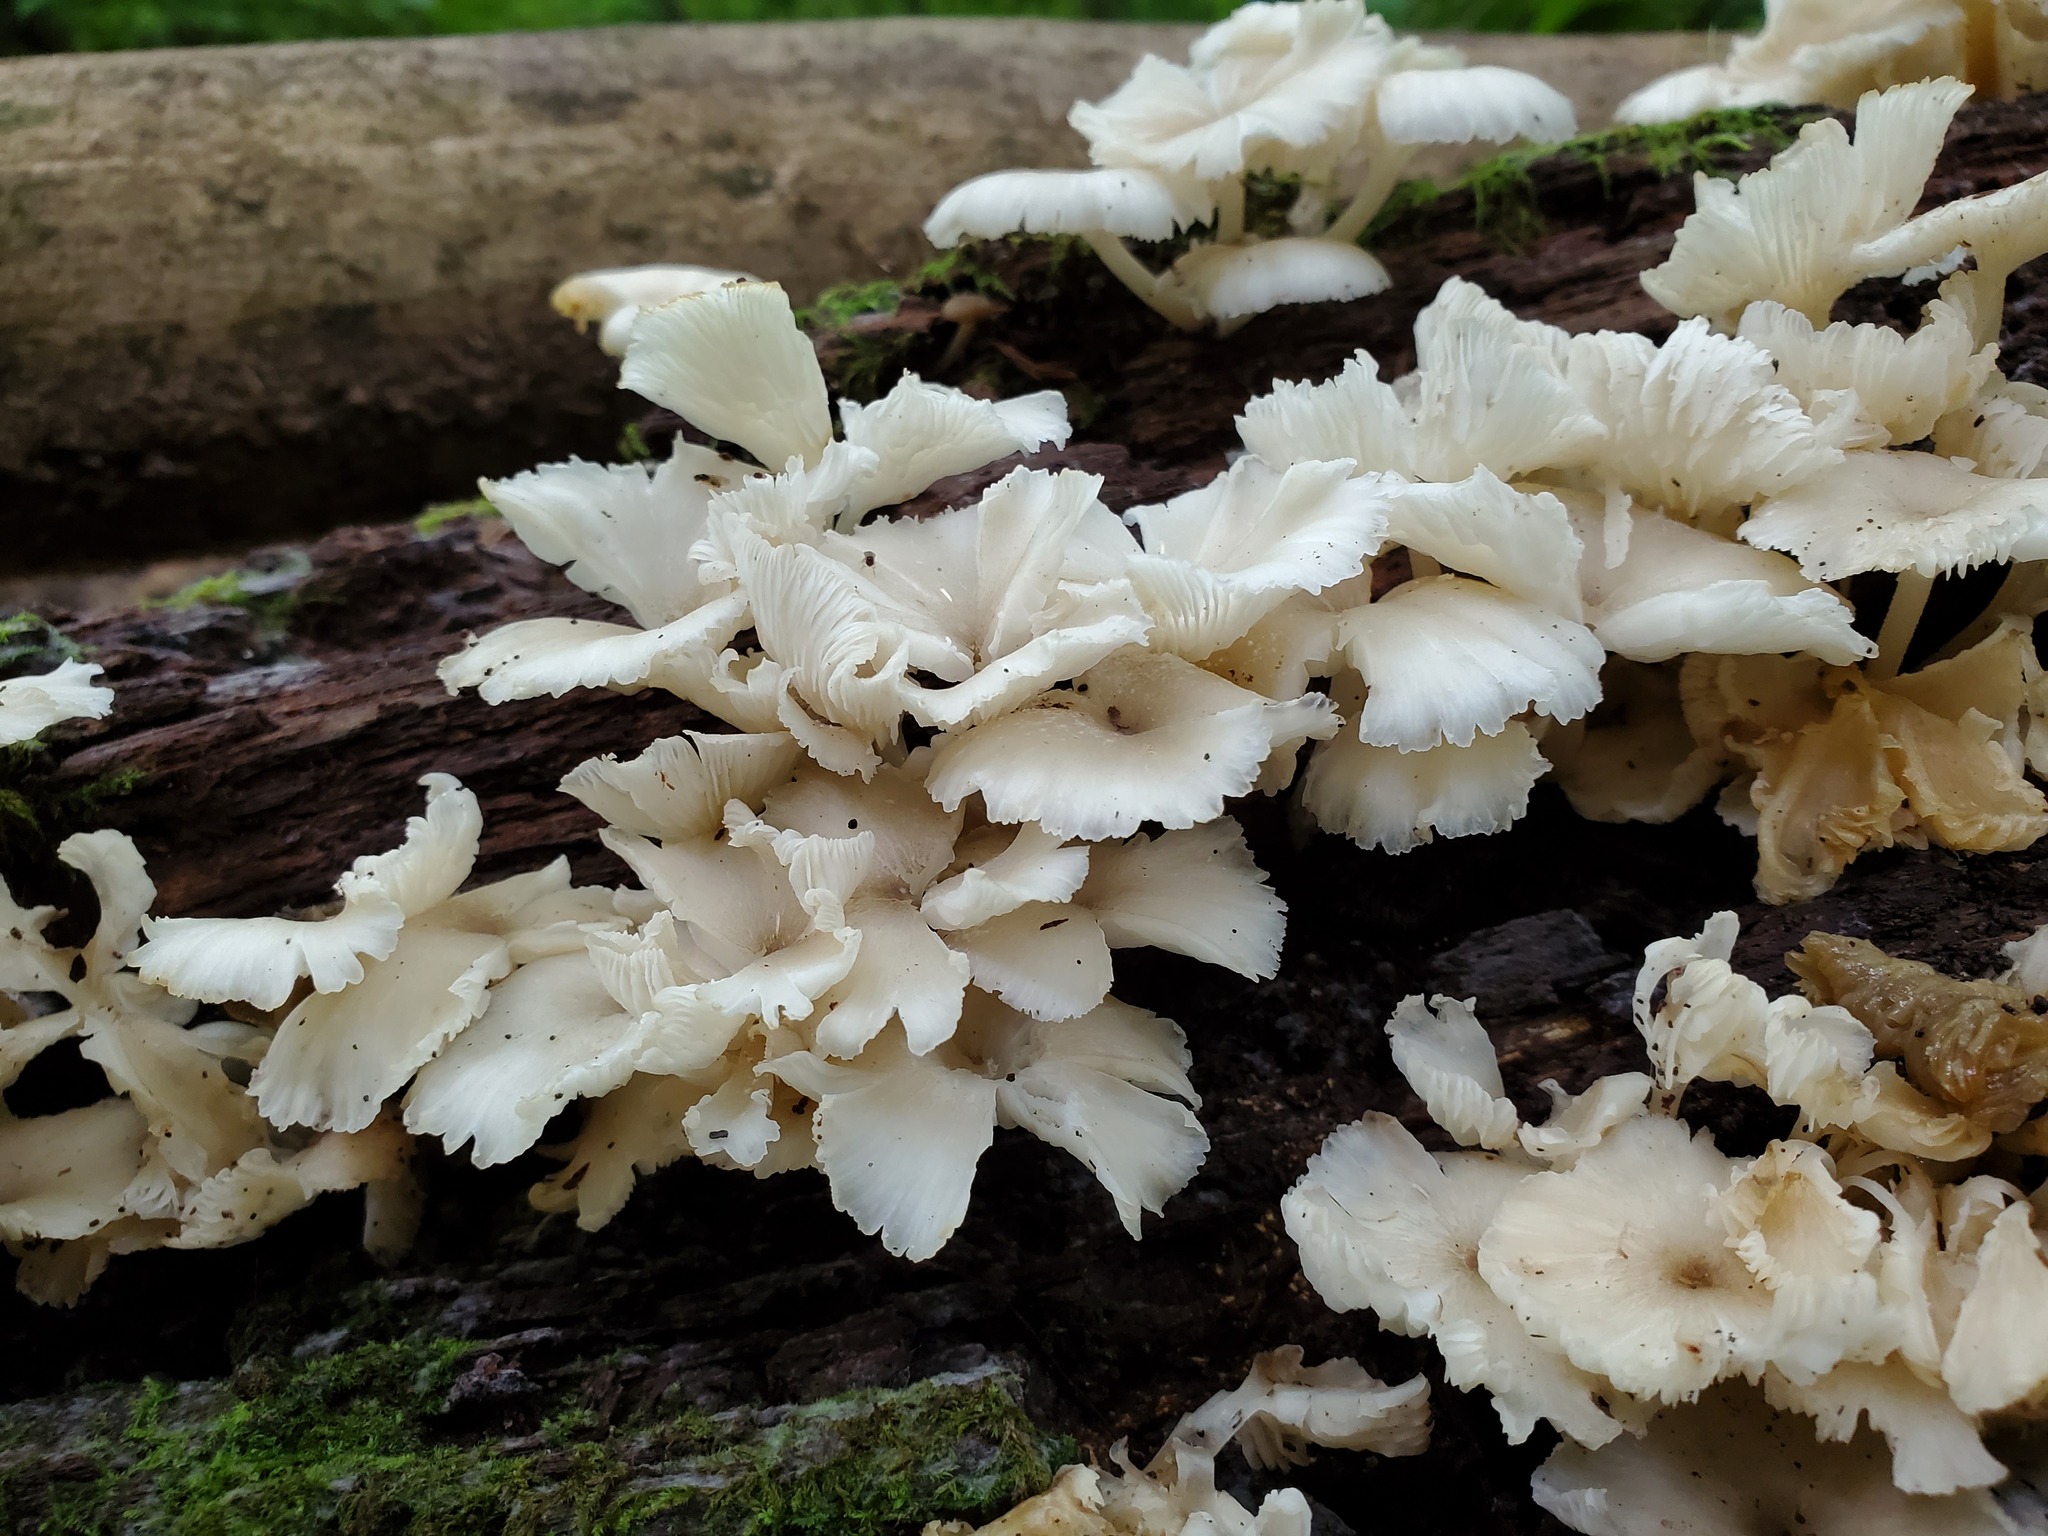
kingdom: Fungi
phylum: Basidiomycota
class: Agaricomycetes
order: Agaricales
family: Marasmiaceae
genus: Clitocybula
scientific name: Clitocybula oculus
